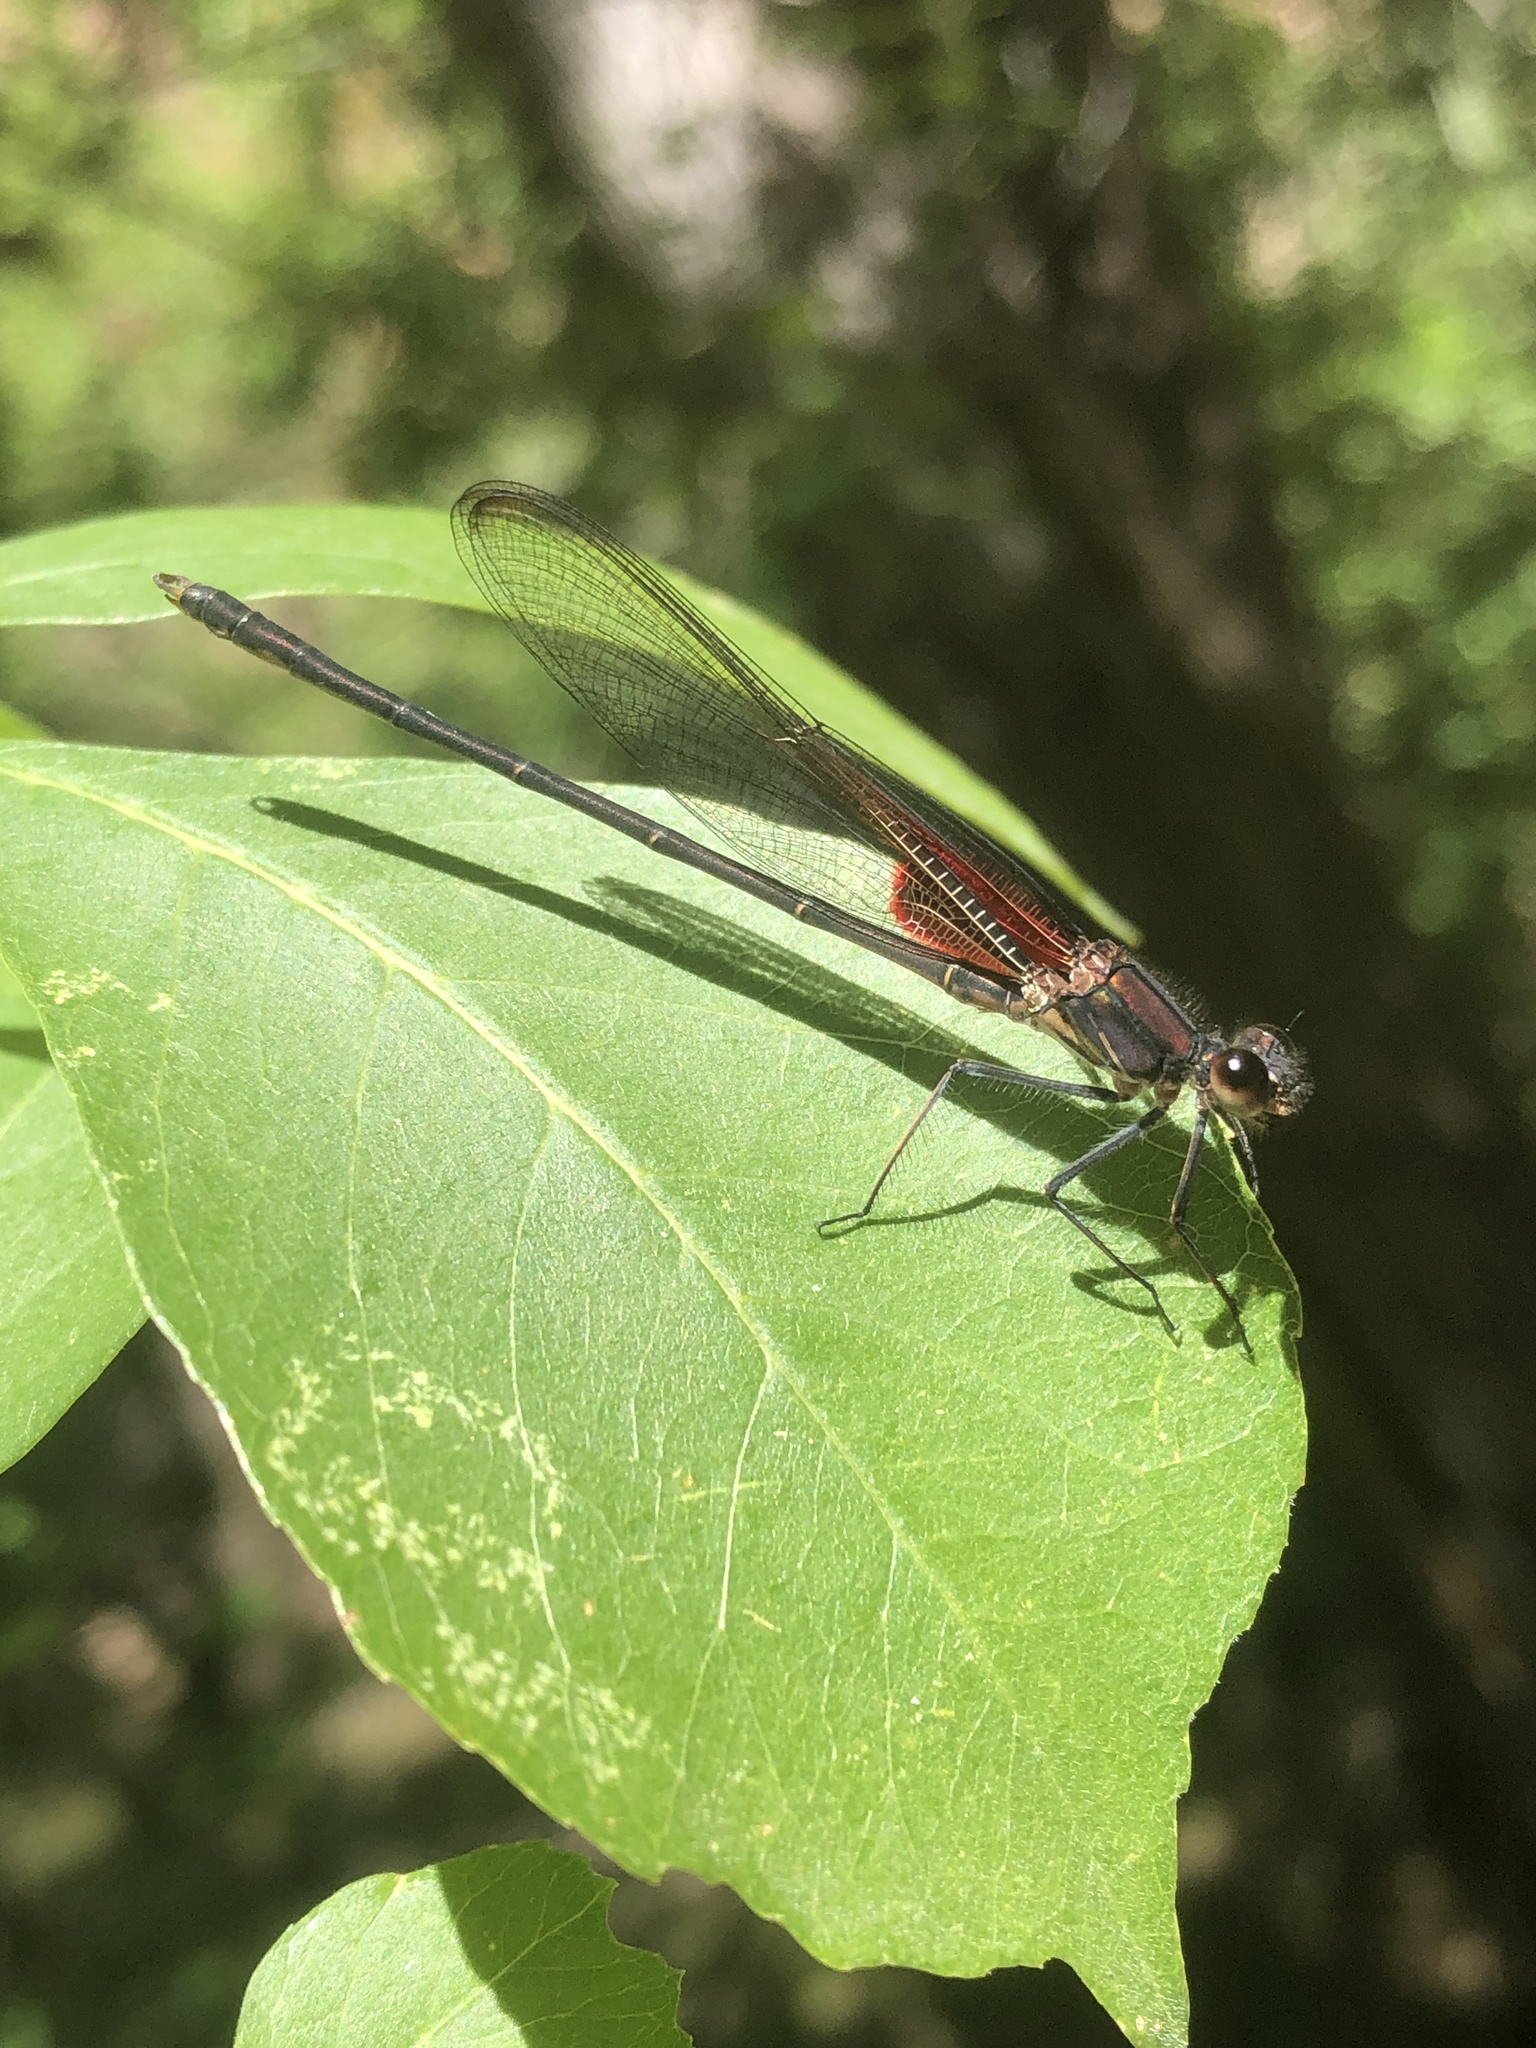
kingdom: Animalia
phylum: Arthropoda
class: Insecta
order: Odonata
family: Calopterygidae
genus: Hetaerina
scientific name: Hetaerina vulnerata
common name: Canyon rubyspot
